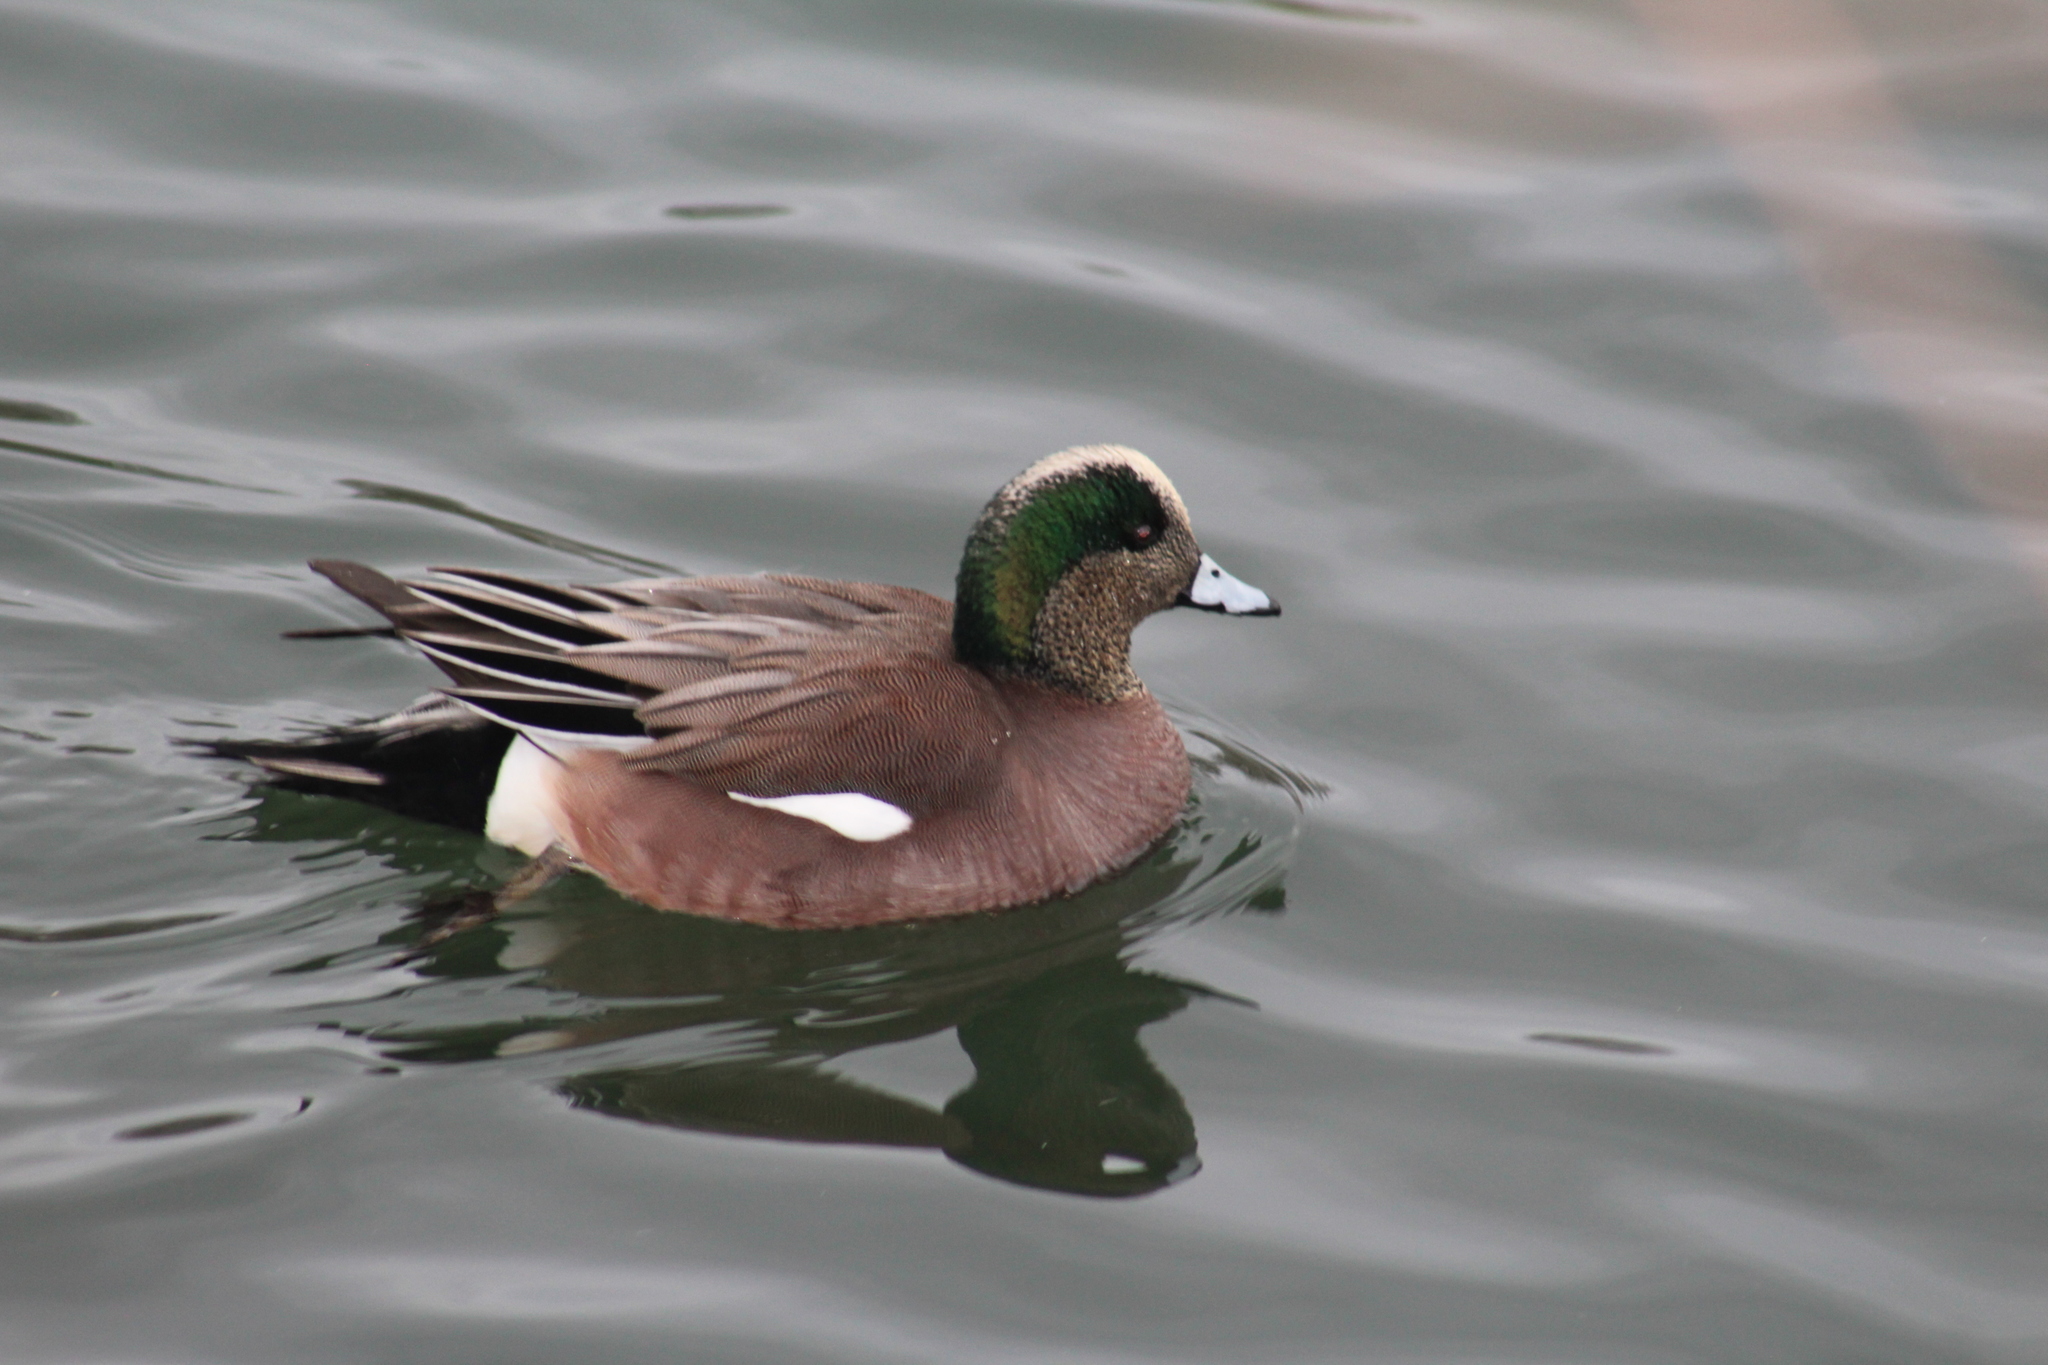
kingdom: Animalia
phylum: Chordata
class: Aves
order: Anseriformes
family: Anatidae
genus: Mareca
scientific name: Mareca americana
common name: American wigeon
